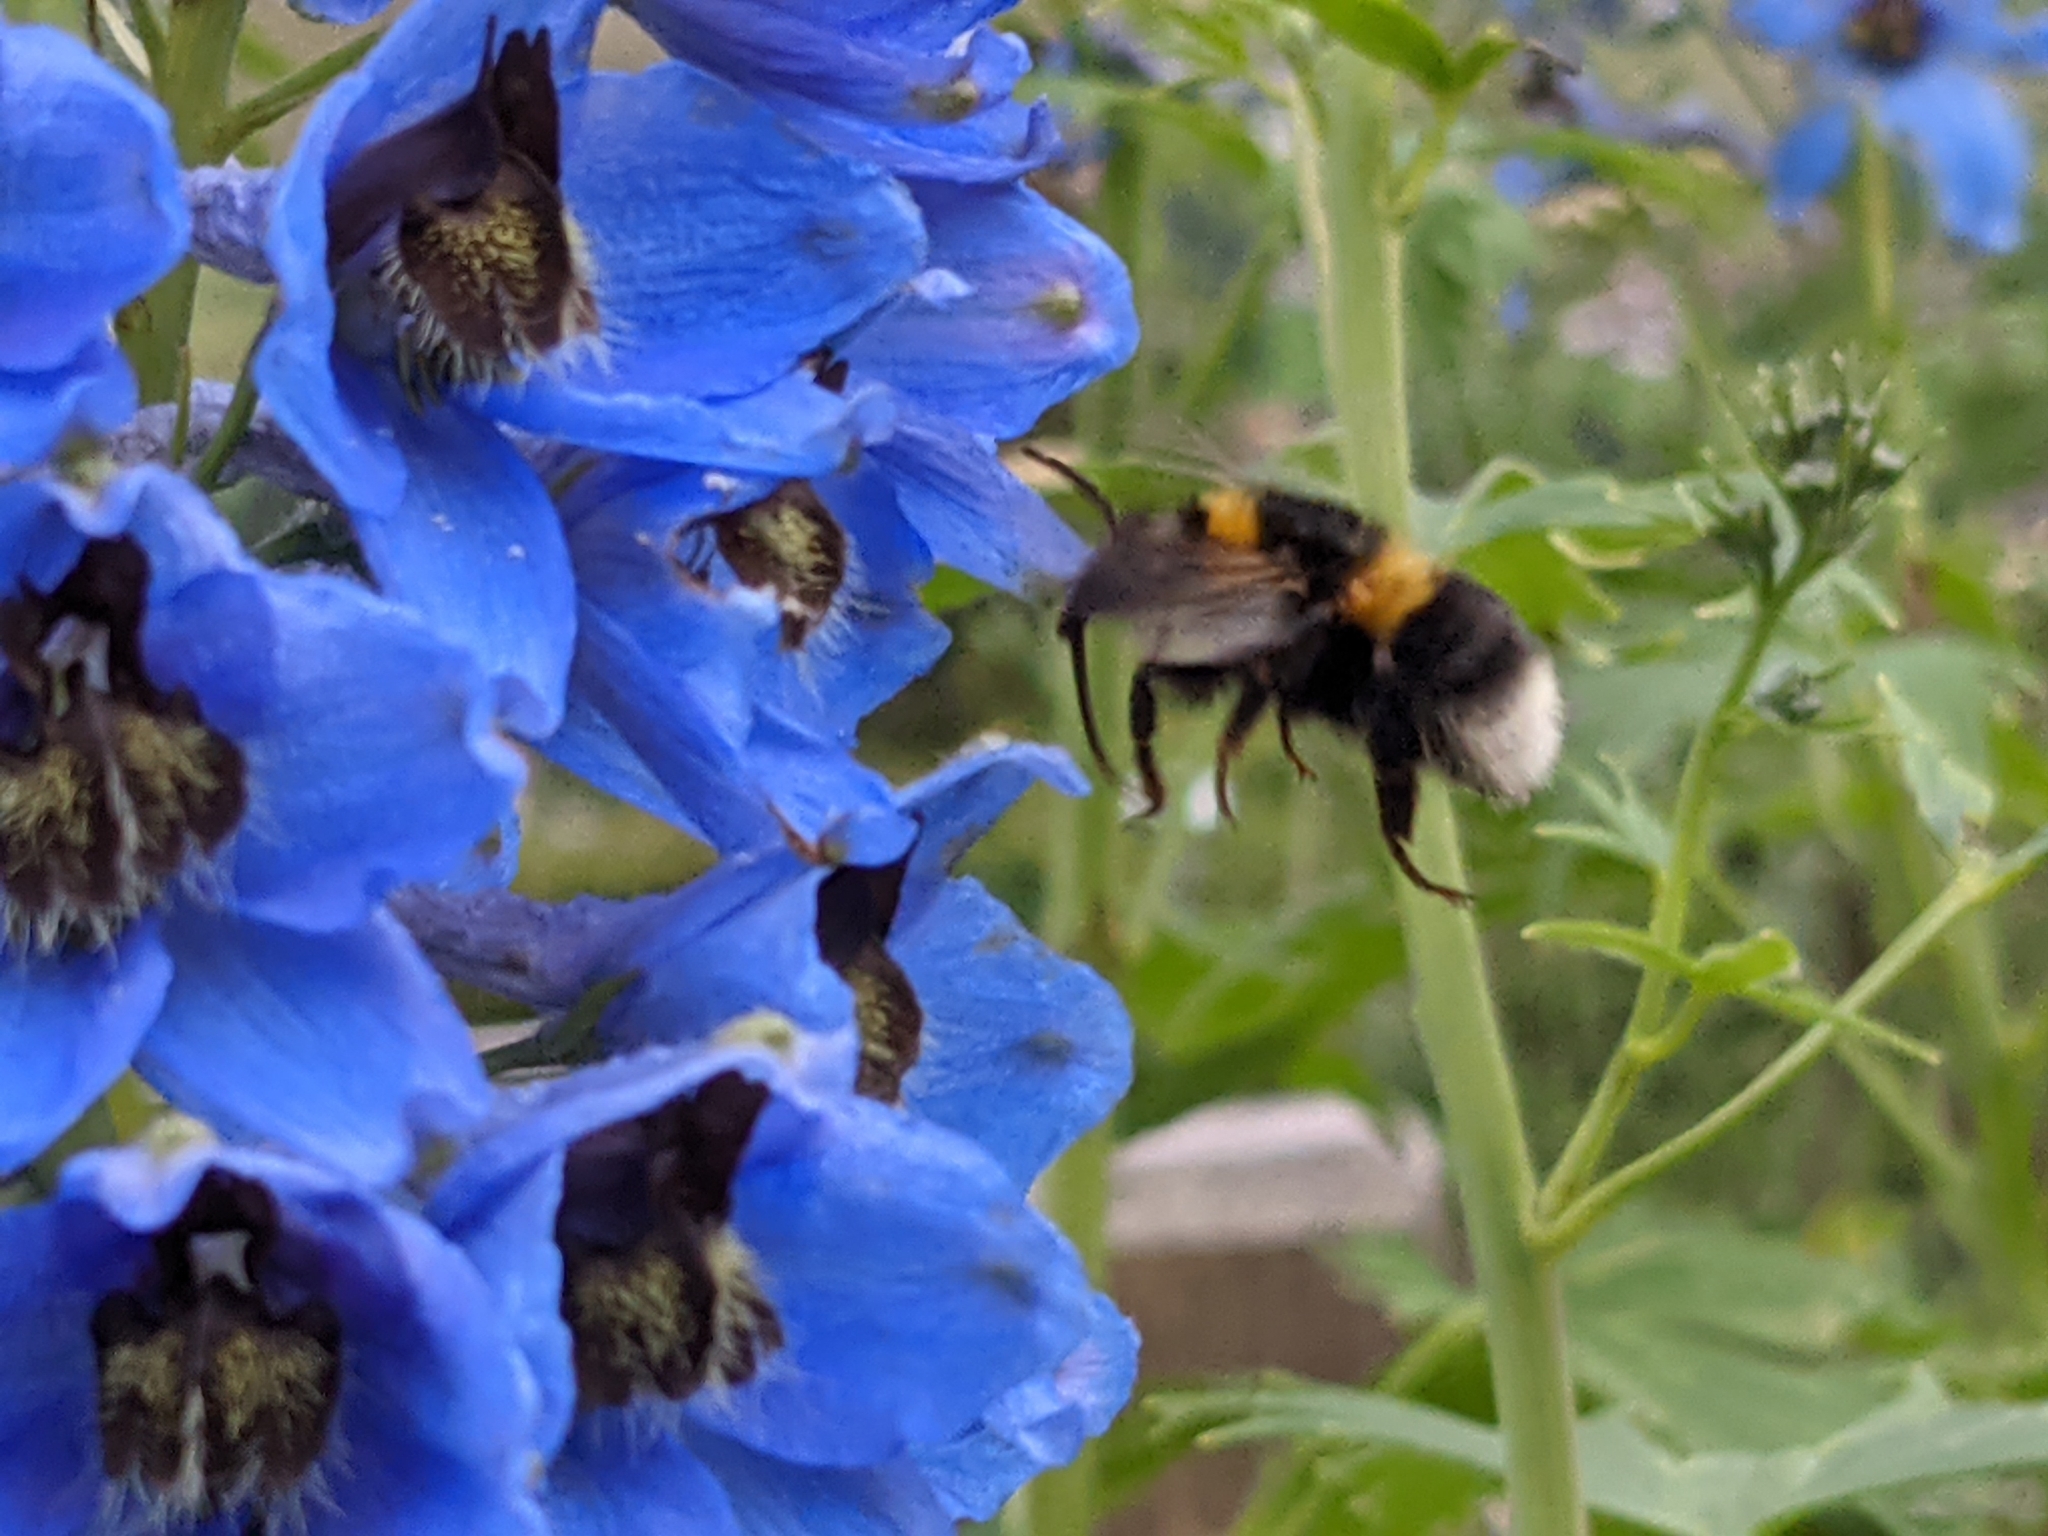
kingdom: Animalia
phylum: Arthropoda
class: Insecta
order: Hymenoptera
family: Apidae
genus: Bombus
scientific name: Bombus hortorum
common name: Garden bumblebee
